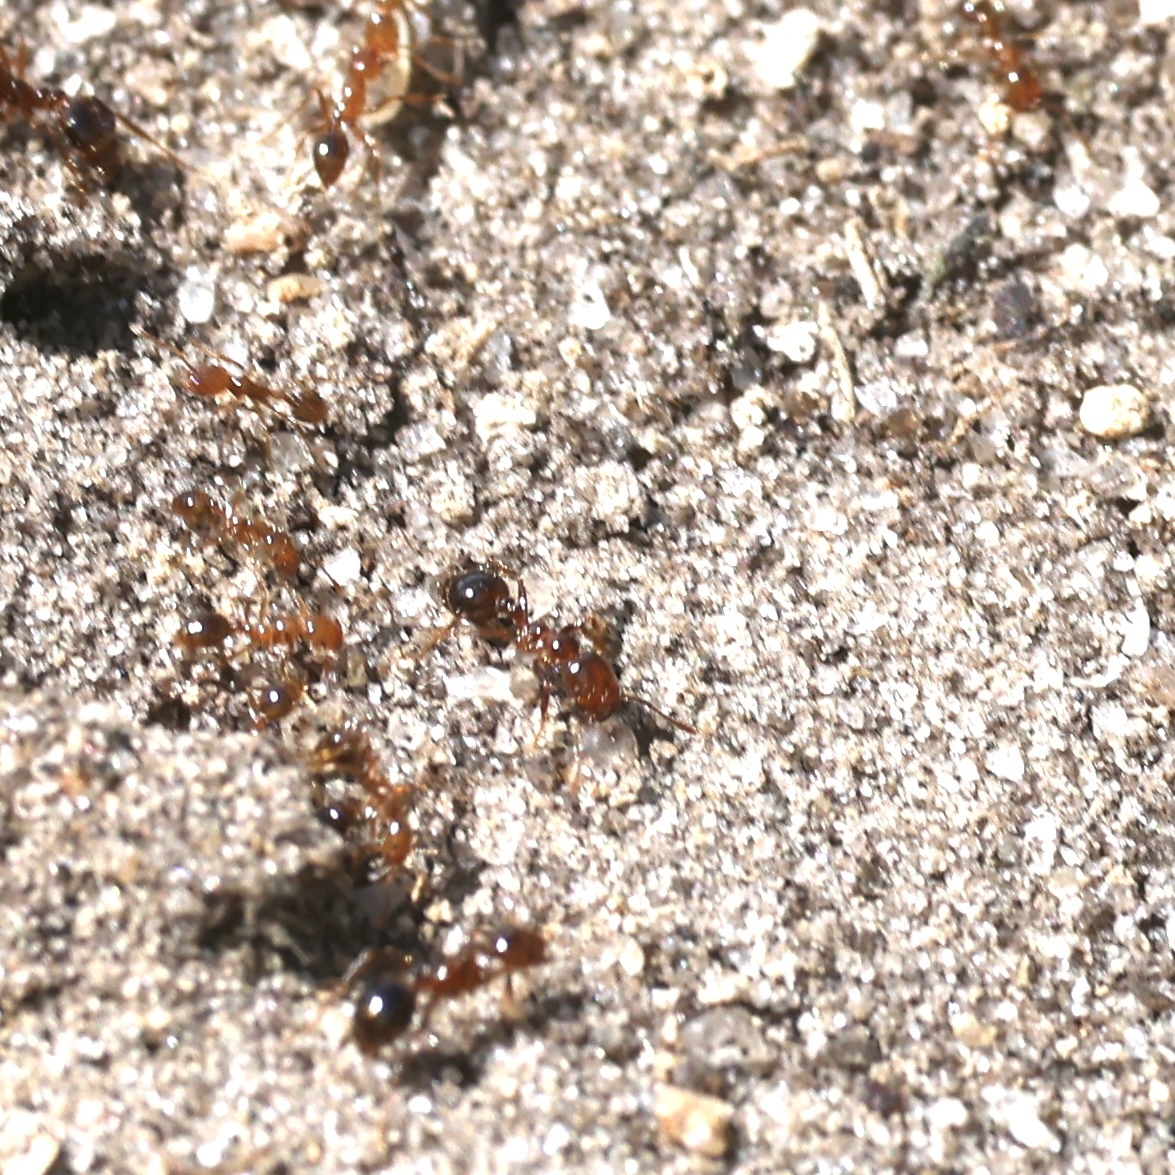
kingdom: Animalia
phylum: Arthropoda
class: Insecta
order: Hymenoptera
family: Formicidae
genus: Solenopsis
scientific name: Solenopsis invicta
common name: Red imported fire ant
